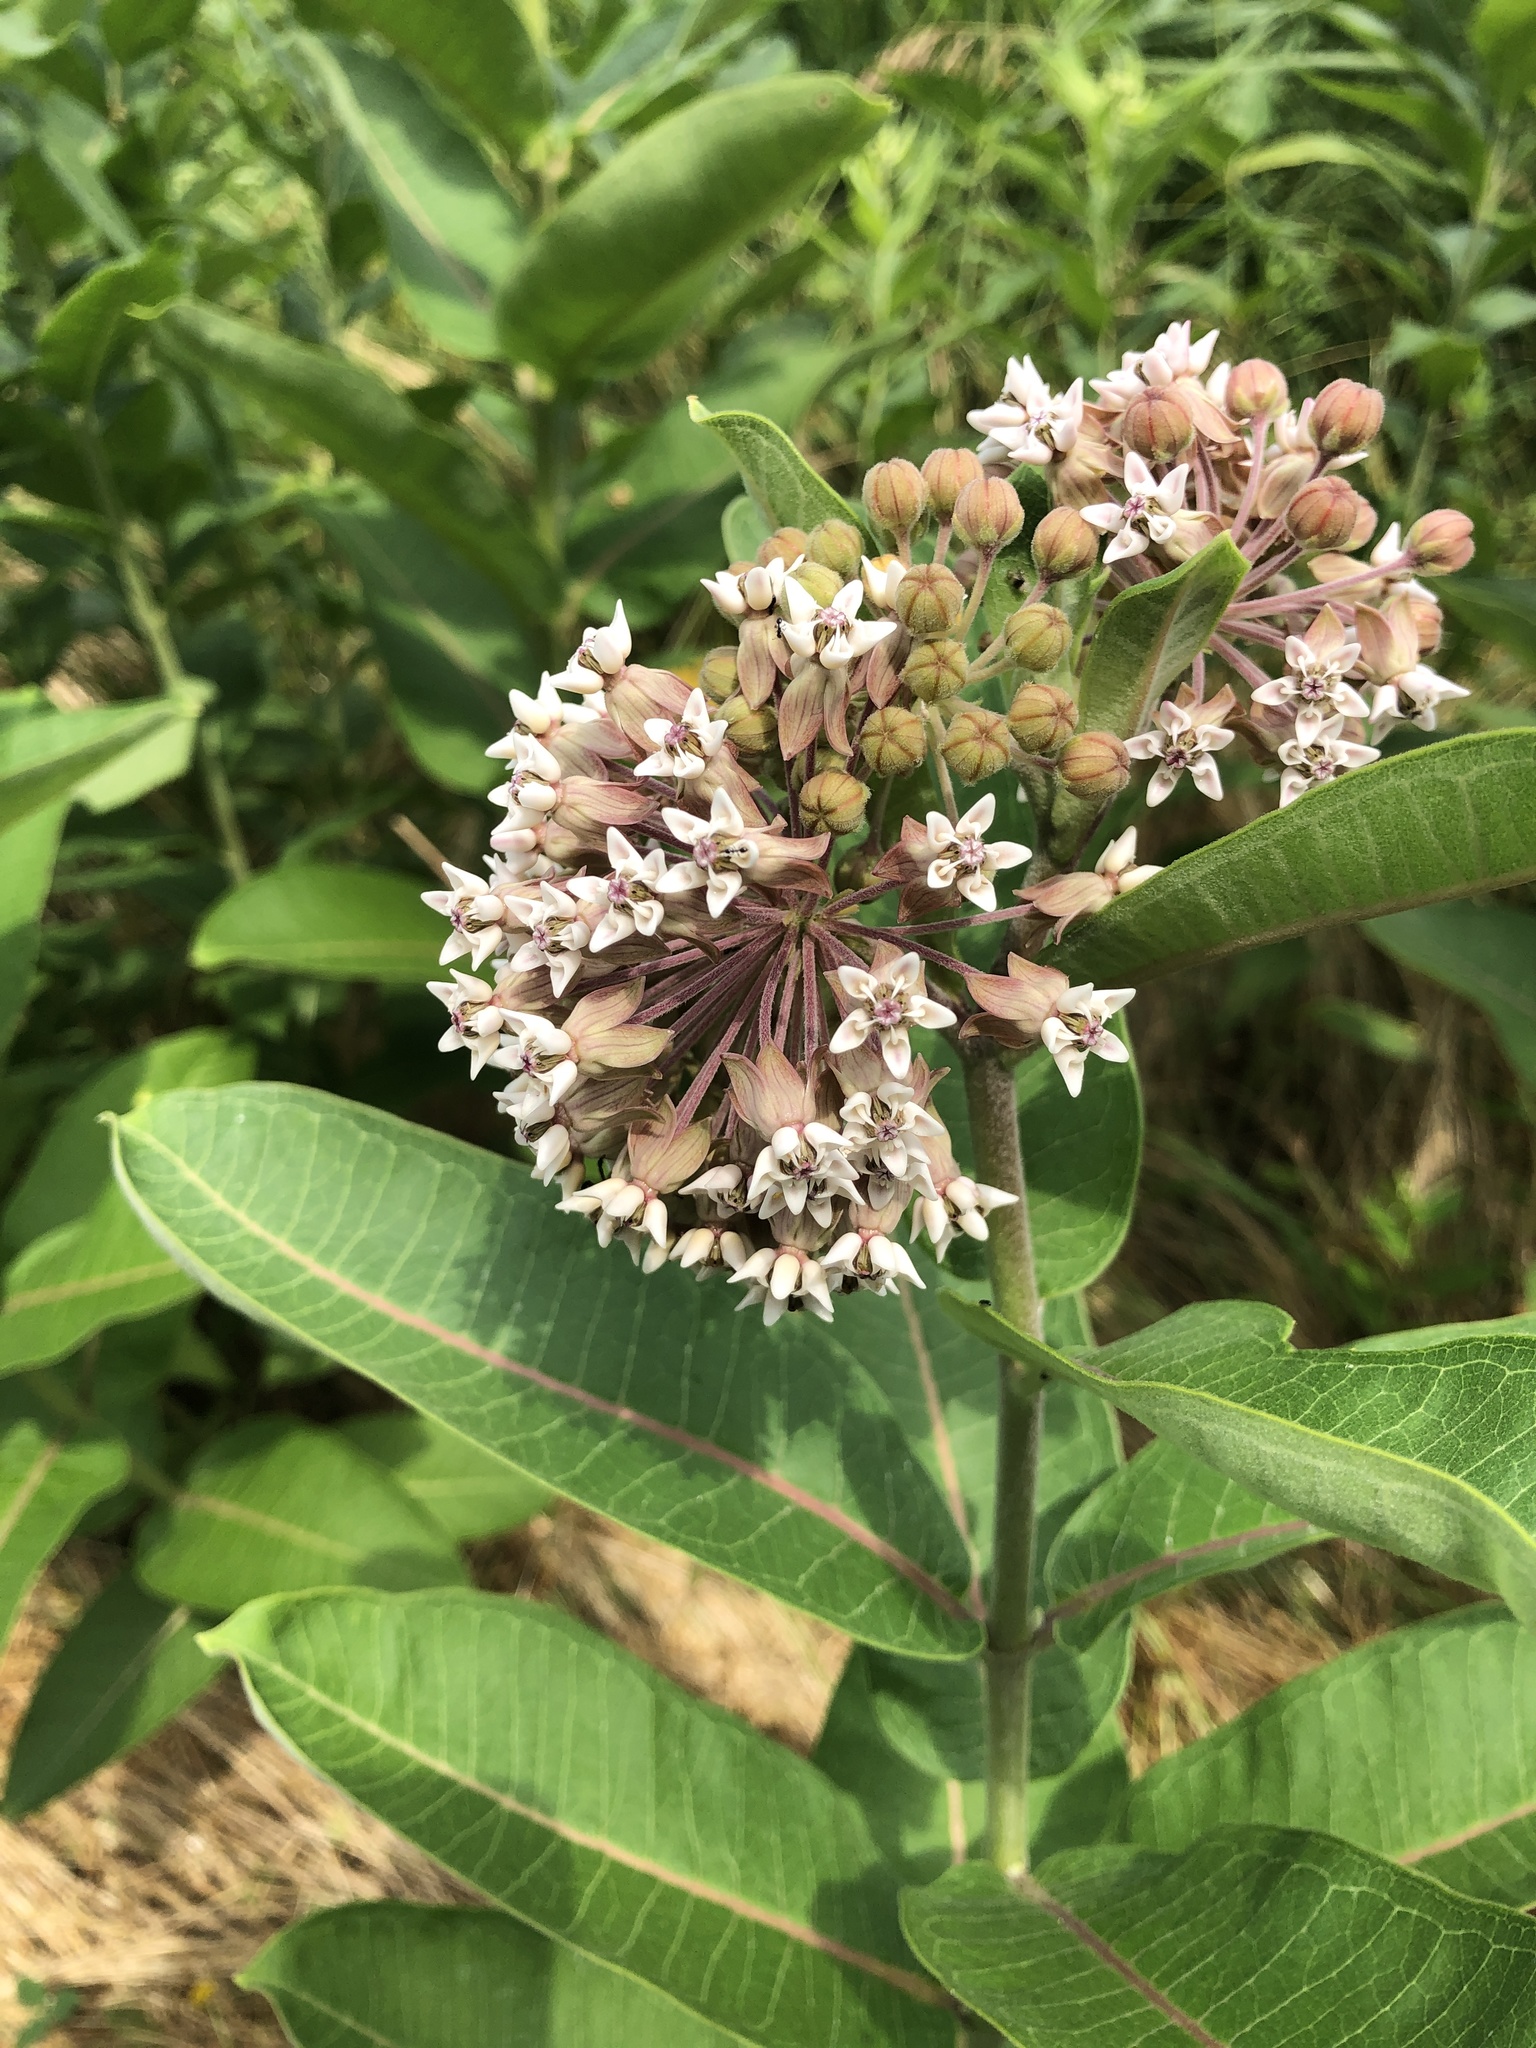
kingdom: Plantae
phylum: Tracheophyta
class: Magnoliopsida
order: Gentianales
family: Apocynaceae
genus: Asclepias
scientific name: Asclepias syriaca
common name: Common milkweed
